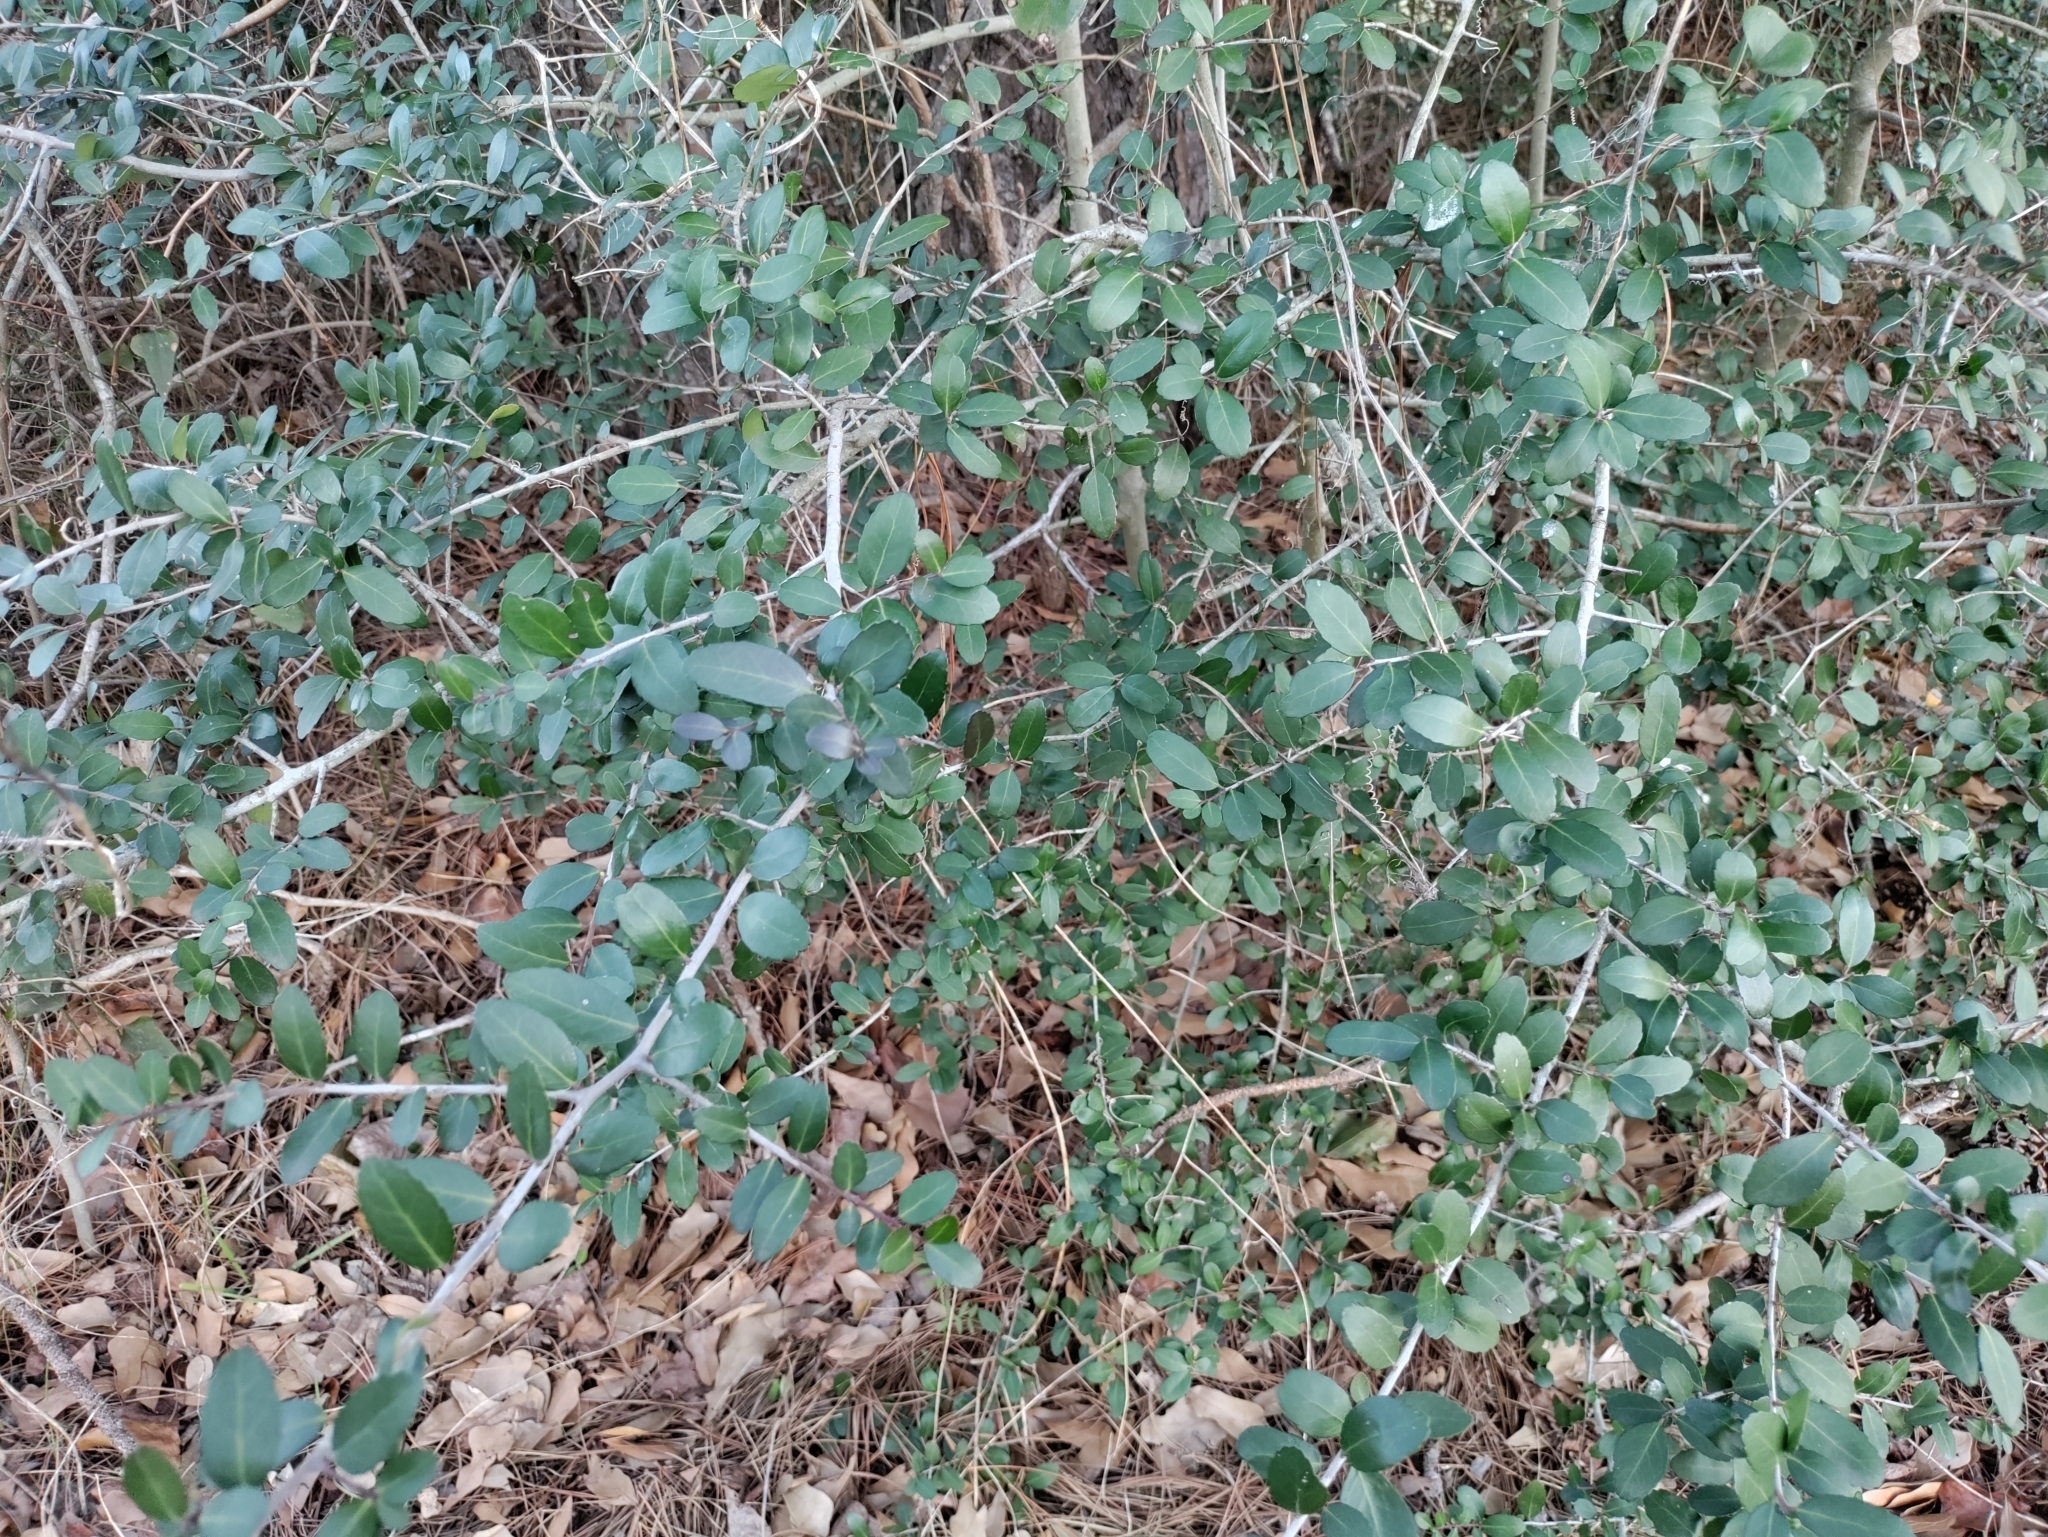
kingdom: Plantae
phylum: Tracheophyta
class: Magnoliopsida
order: Aquifoliales
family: Aquifoliaceae
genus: Ilex
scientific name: Ilex vomitoria
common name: Yaupon holly
